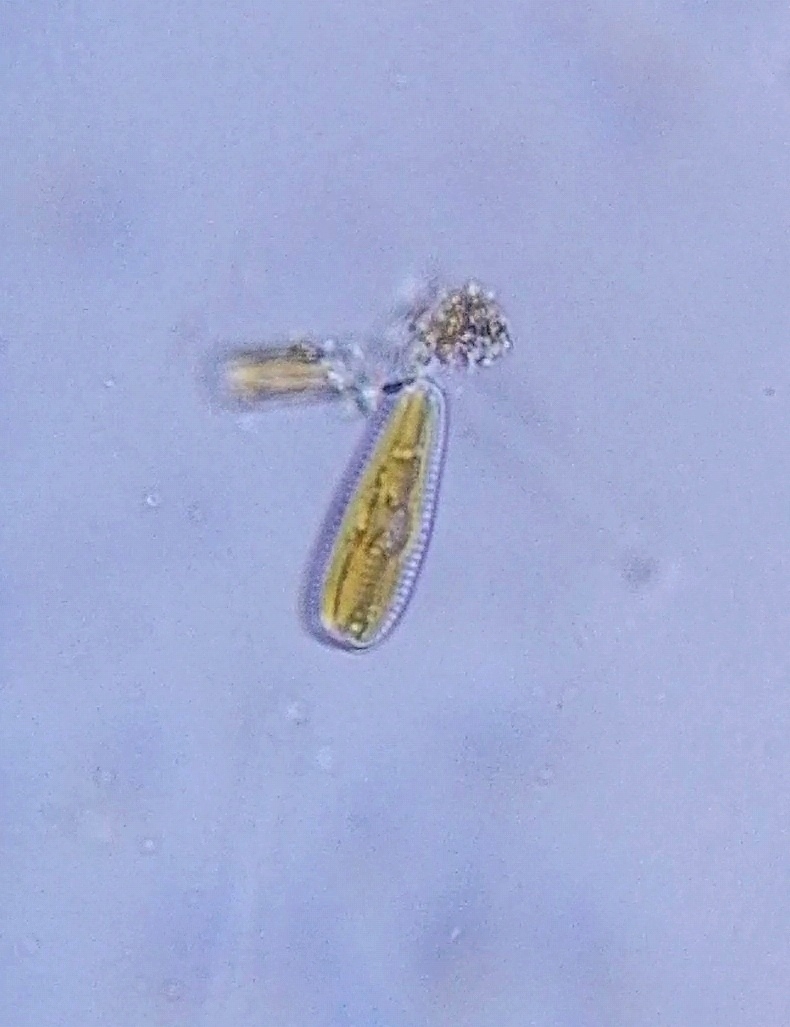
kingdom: Chromista
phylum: Ochrophyta
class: Bacillariophyceae
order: Cymbellales
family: Gomphonemataceae
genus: Gomphonema
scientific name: Gomphonema
